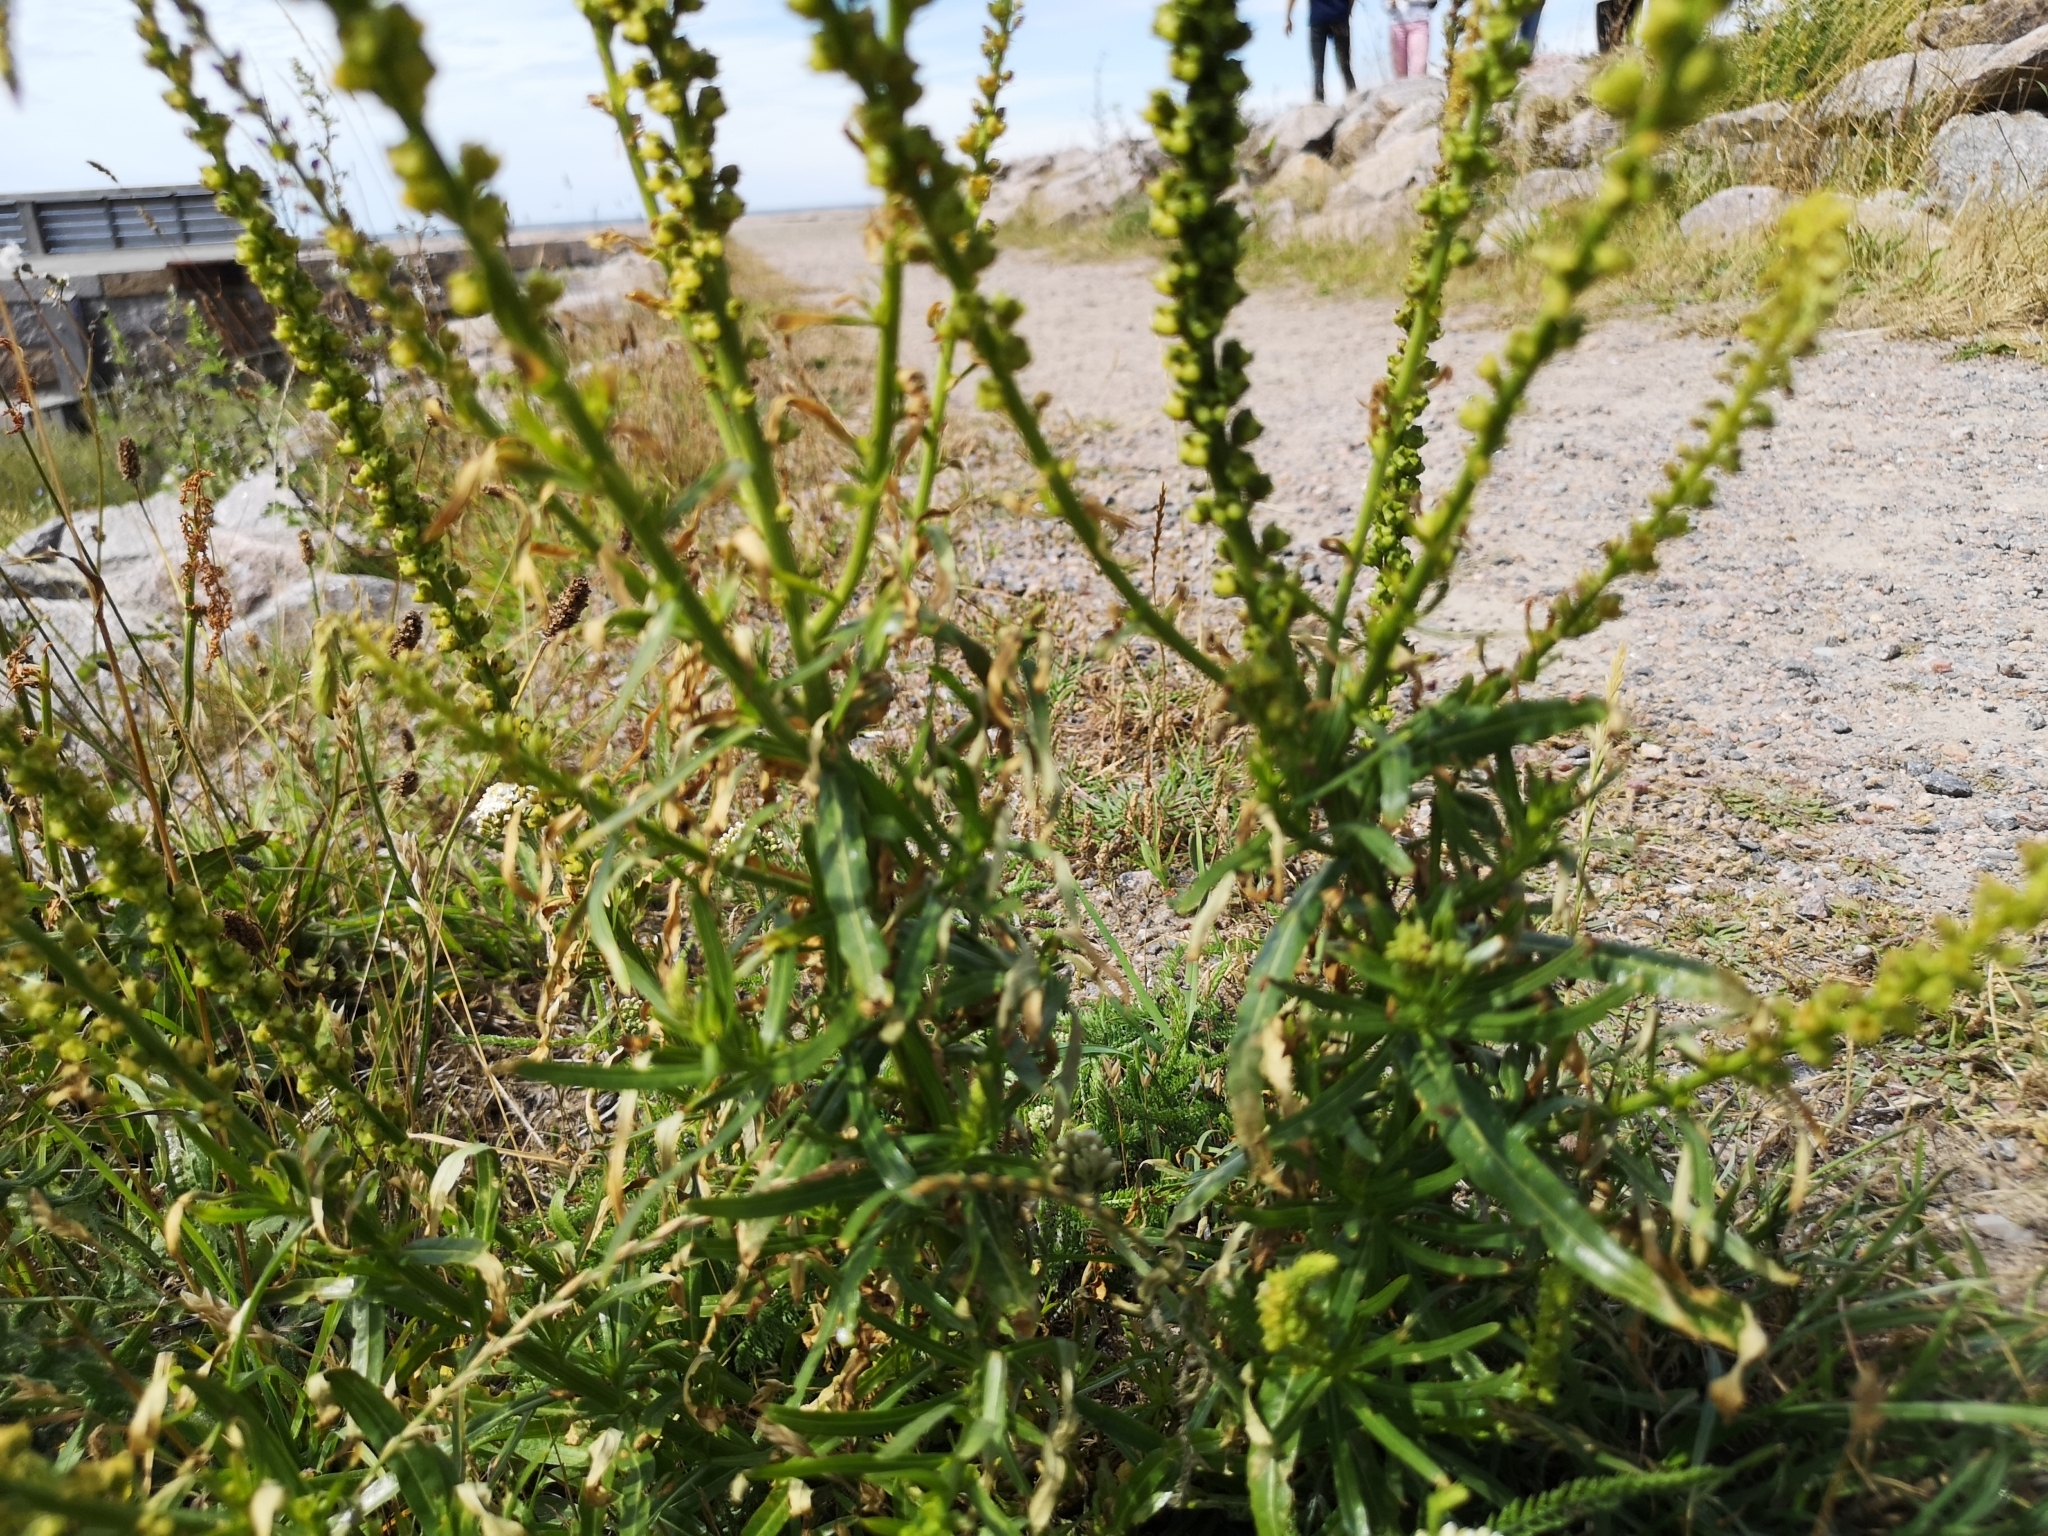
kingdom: Plantae
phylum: Tracheophyta
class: Magnoliopsida
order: Brassicales
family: Resedaceae
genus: Reseda
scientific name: Reseda luteola
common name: Weld
